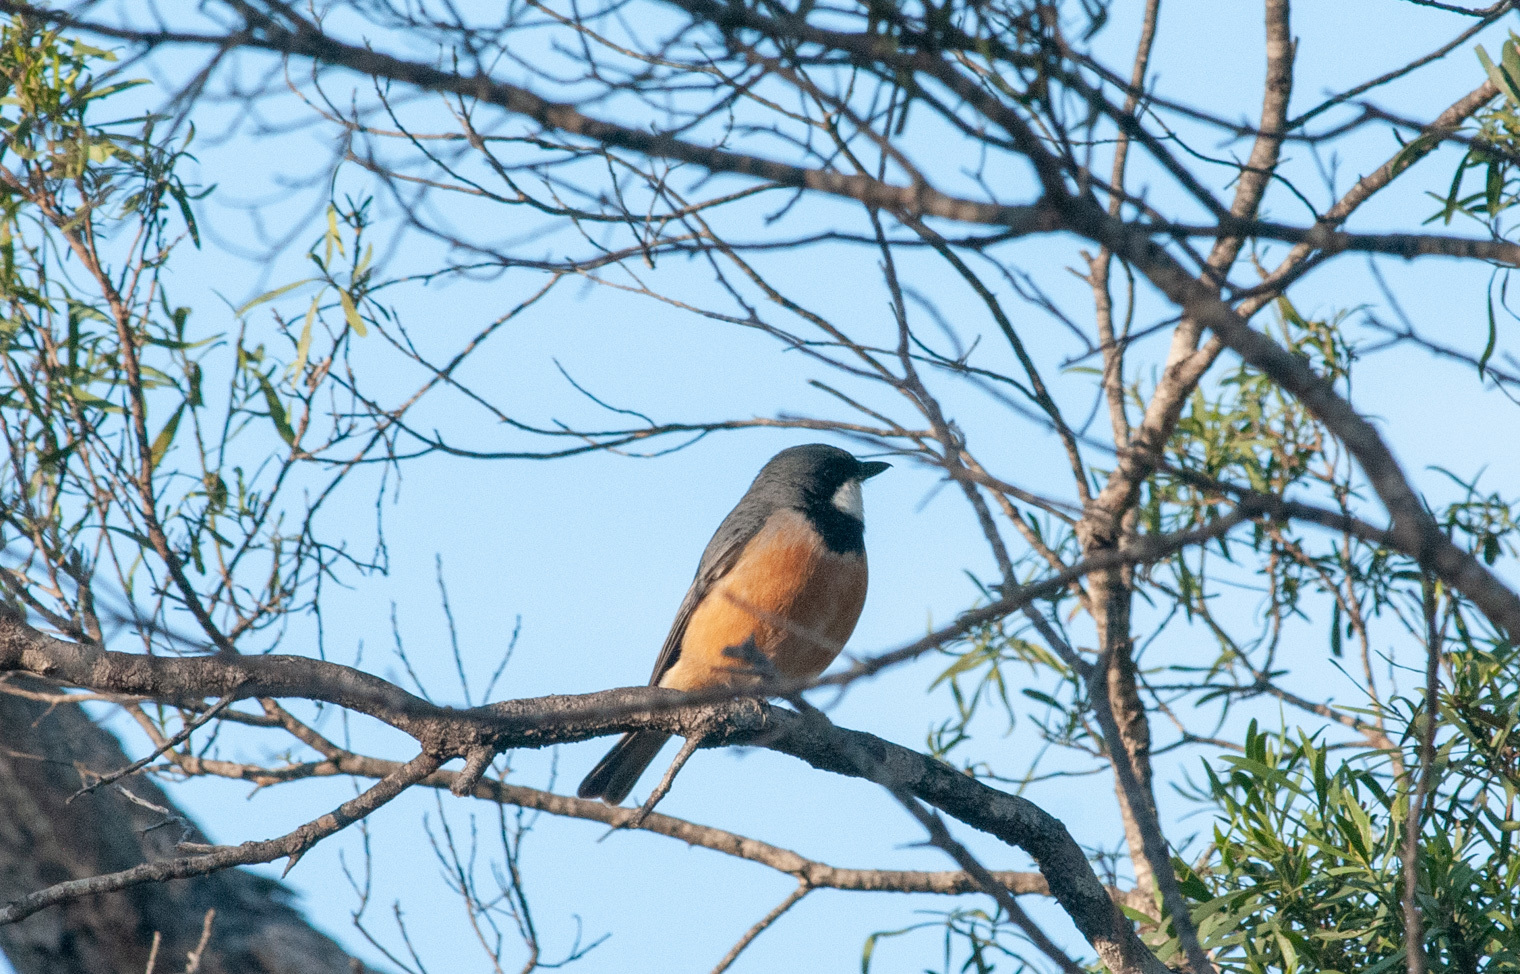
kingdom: Animalia
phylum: Chordata
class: Aves
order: Passeriformes
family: Pachycephalidae
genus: Pachycephala
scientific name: Pachycephala rufiventris
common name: Rufous whistler
